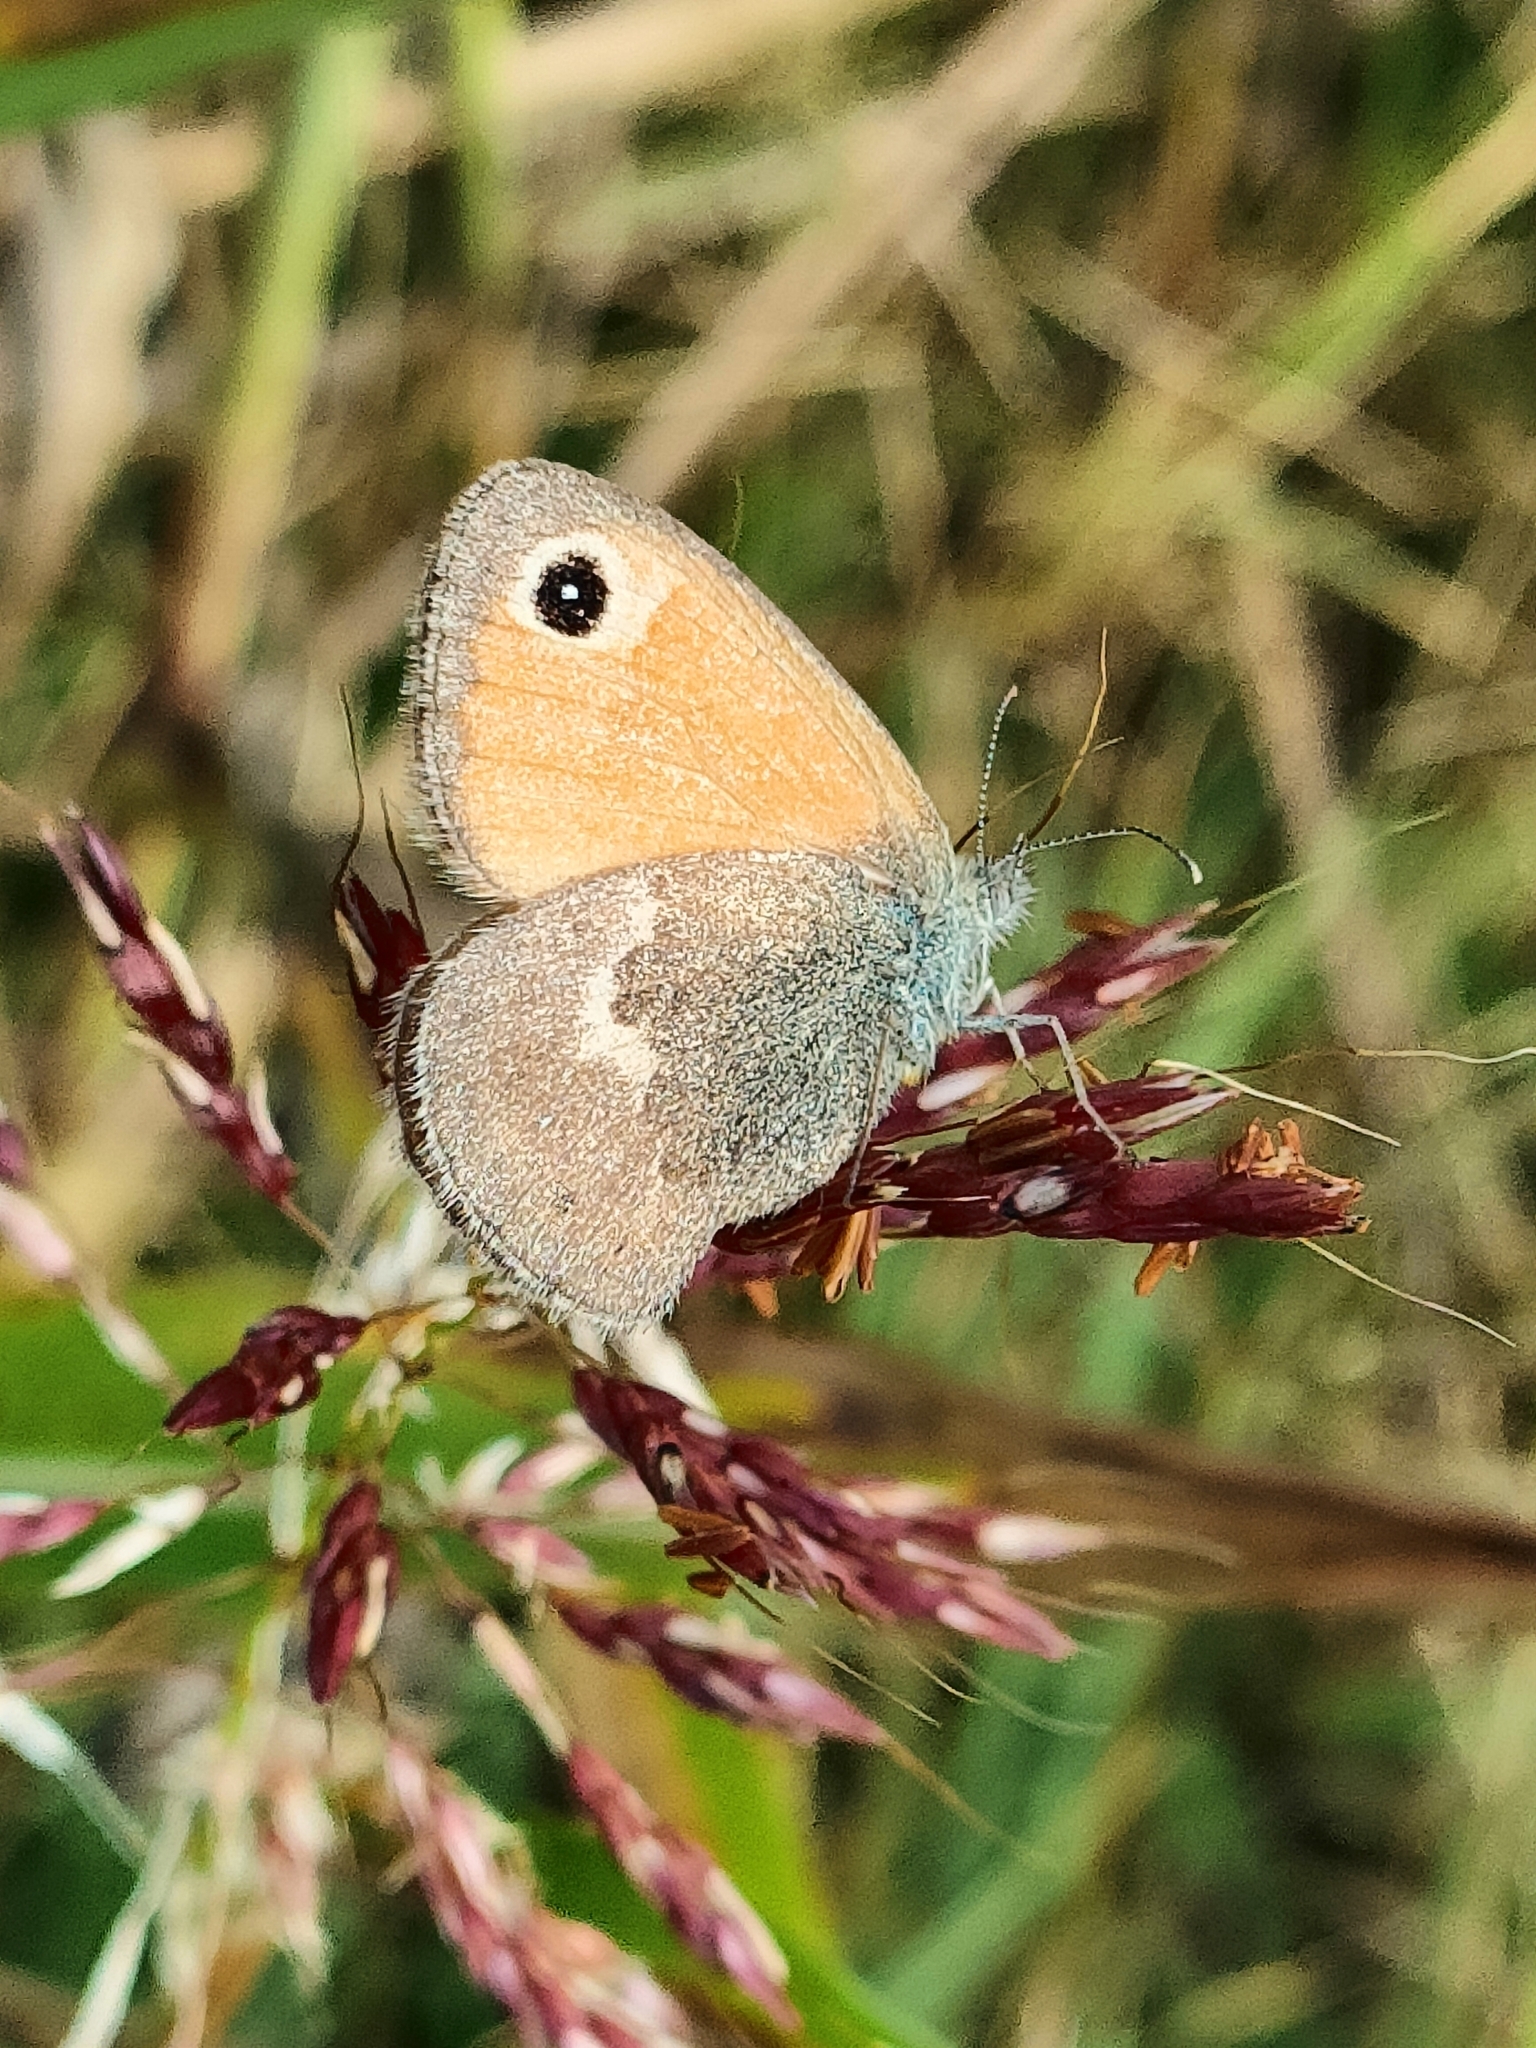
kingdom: Animalia
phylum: Arthropoda
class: Insecta
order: Lepidoptera
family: Nymphalidae
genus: Coenonympha
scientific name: Coenonympha pamphilus
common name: Small heath
